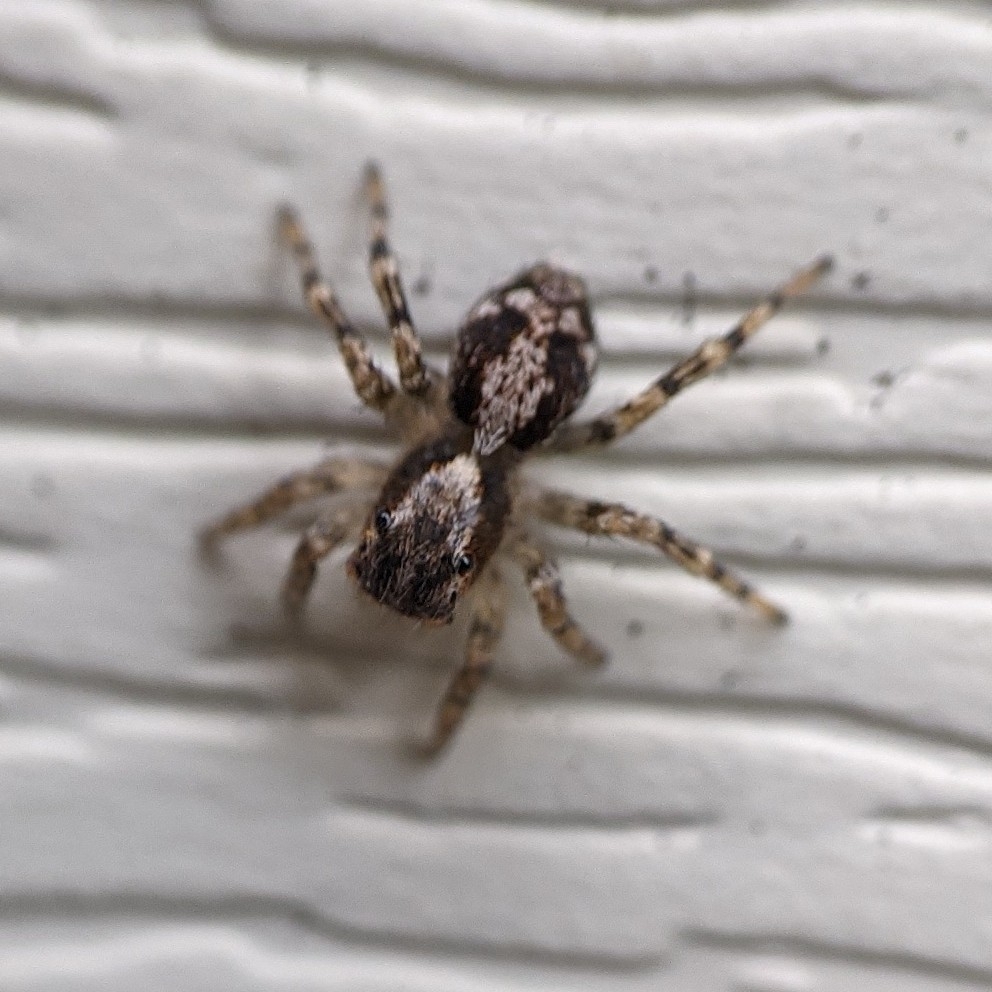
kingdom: Animalia
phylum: Arthropoda
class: Arachnida
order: Araneae
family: Salticidae
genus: Naphrys
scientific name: Naphrys pulex
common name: Flea jumping spider
